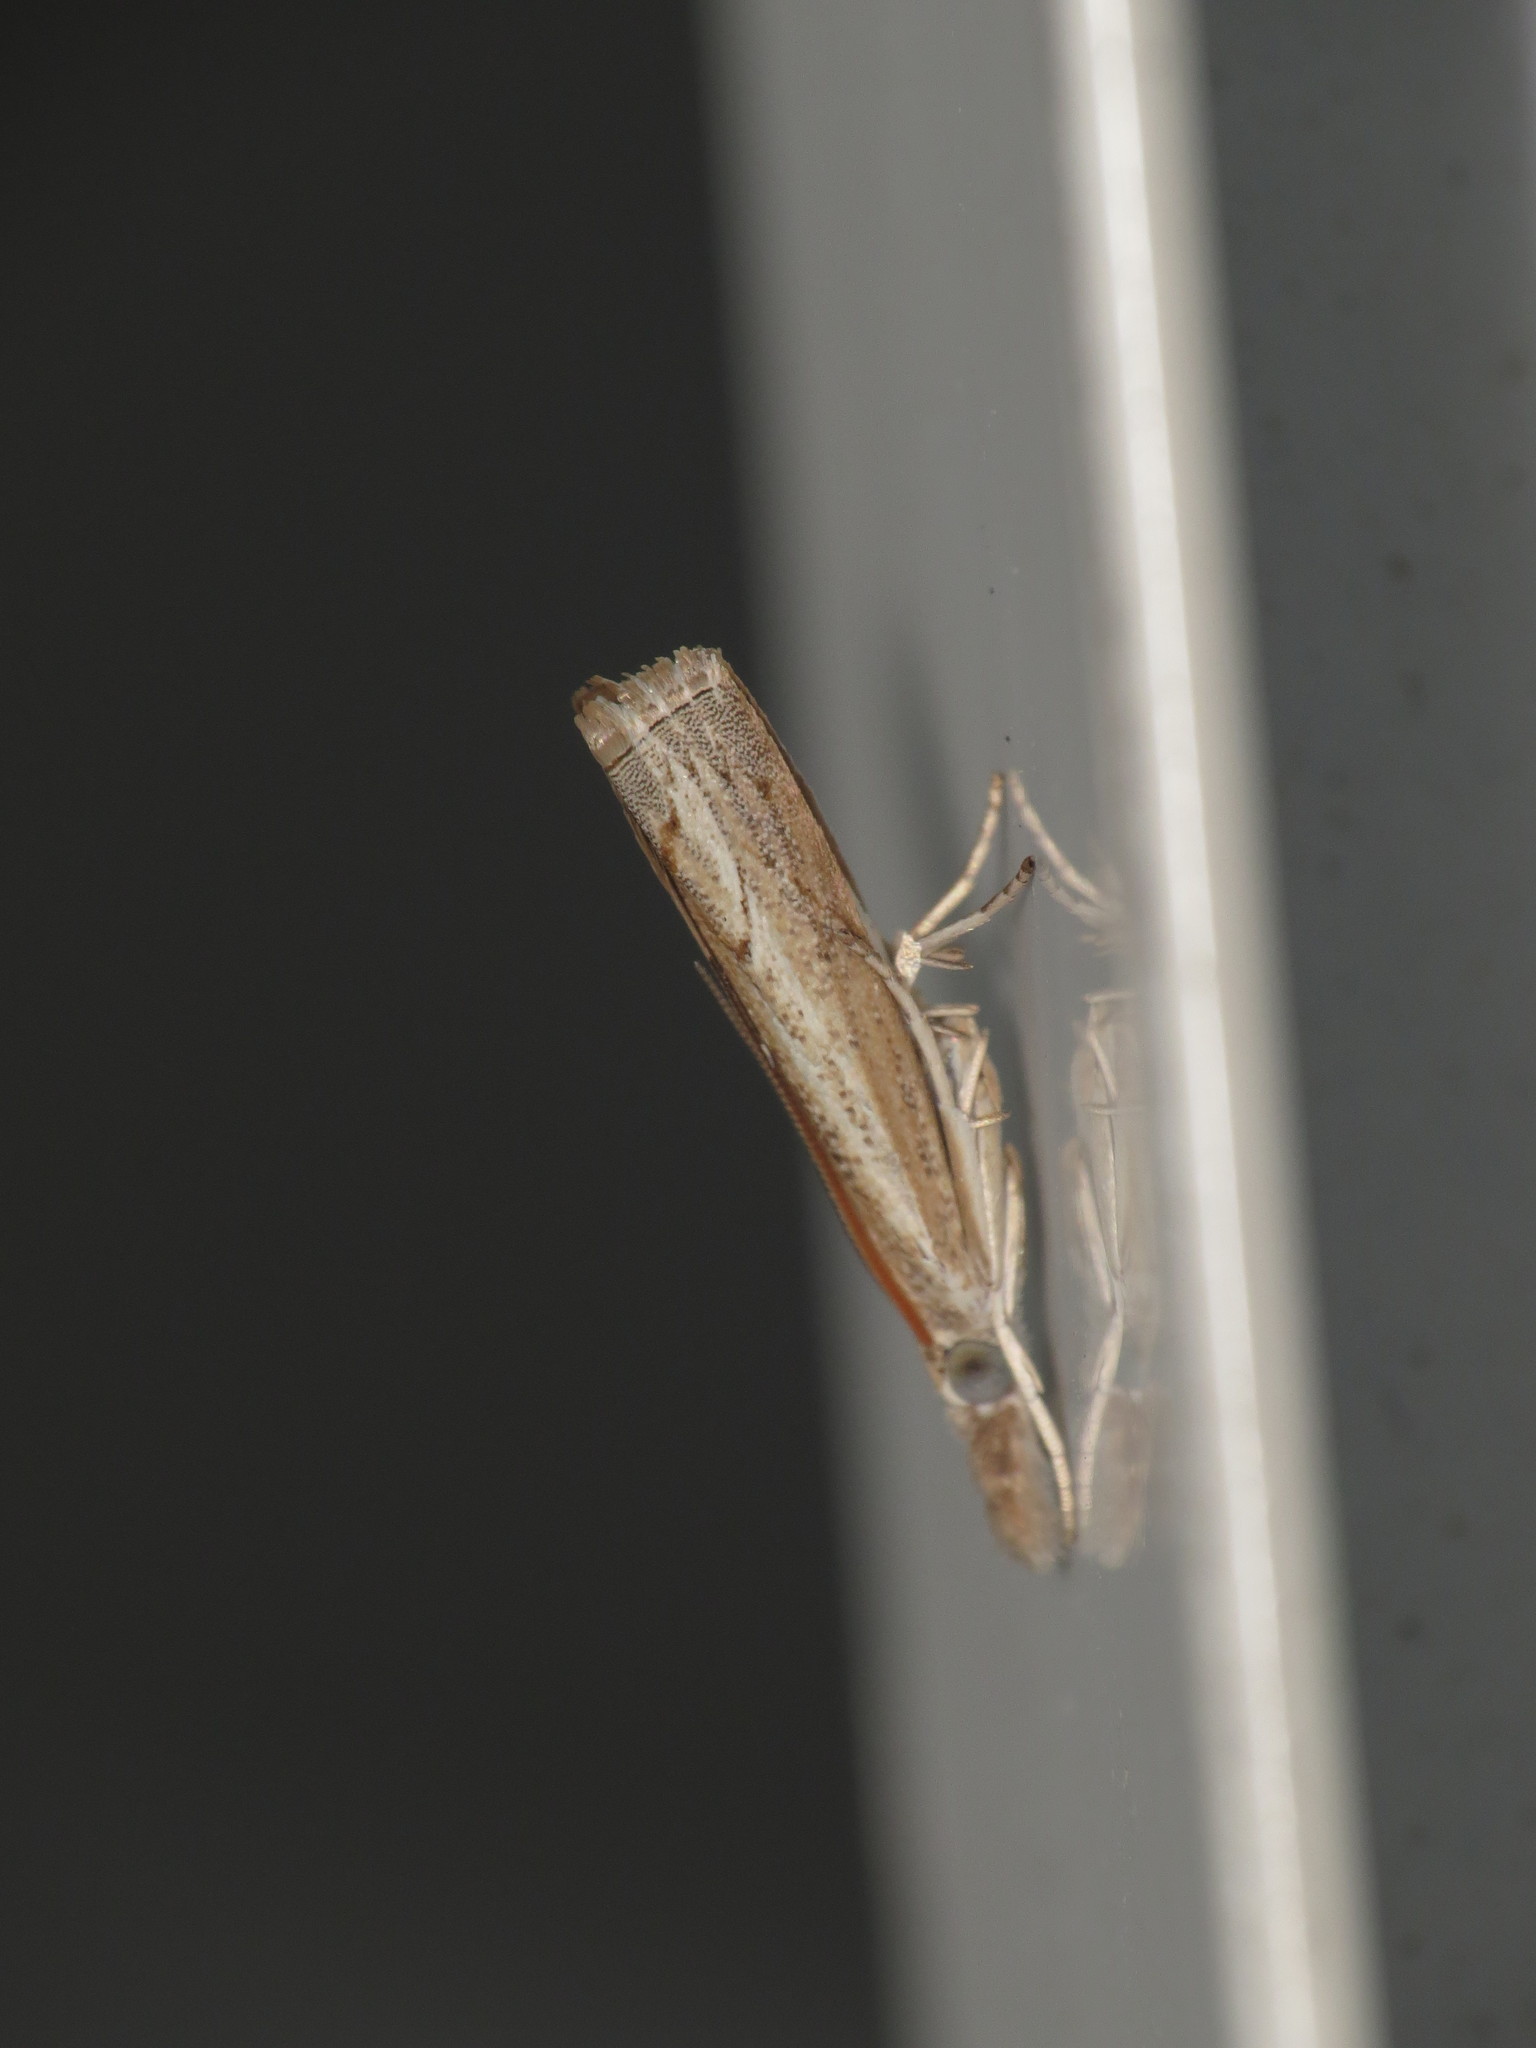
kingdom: Animalia
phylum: Arthropoda
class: Insecta
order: Lepidoptera
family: Crambidae
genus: Culladia
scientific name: Culladia cuneiferellus
